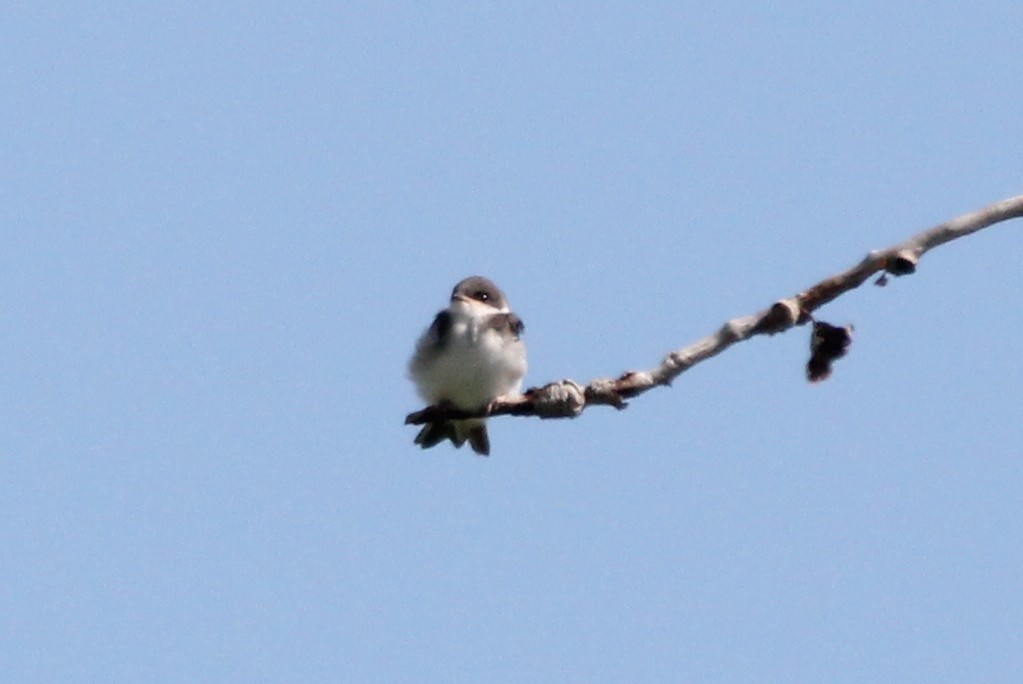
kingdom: Animalia
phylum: Chordata
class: Aves
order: Passeriformes
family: Hirundinidae
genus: Tachycineta
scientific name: Tachycineta bicolor
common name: Tree swallow
